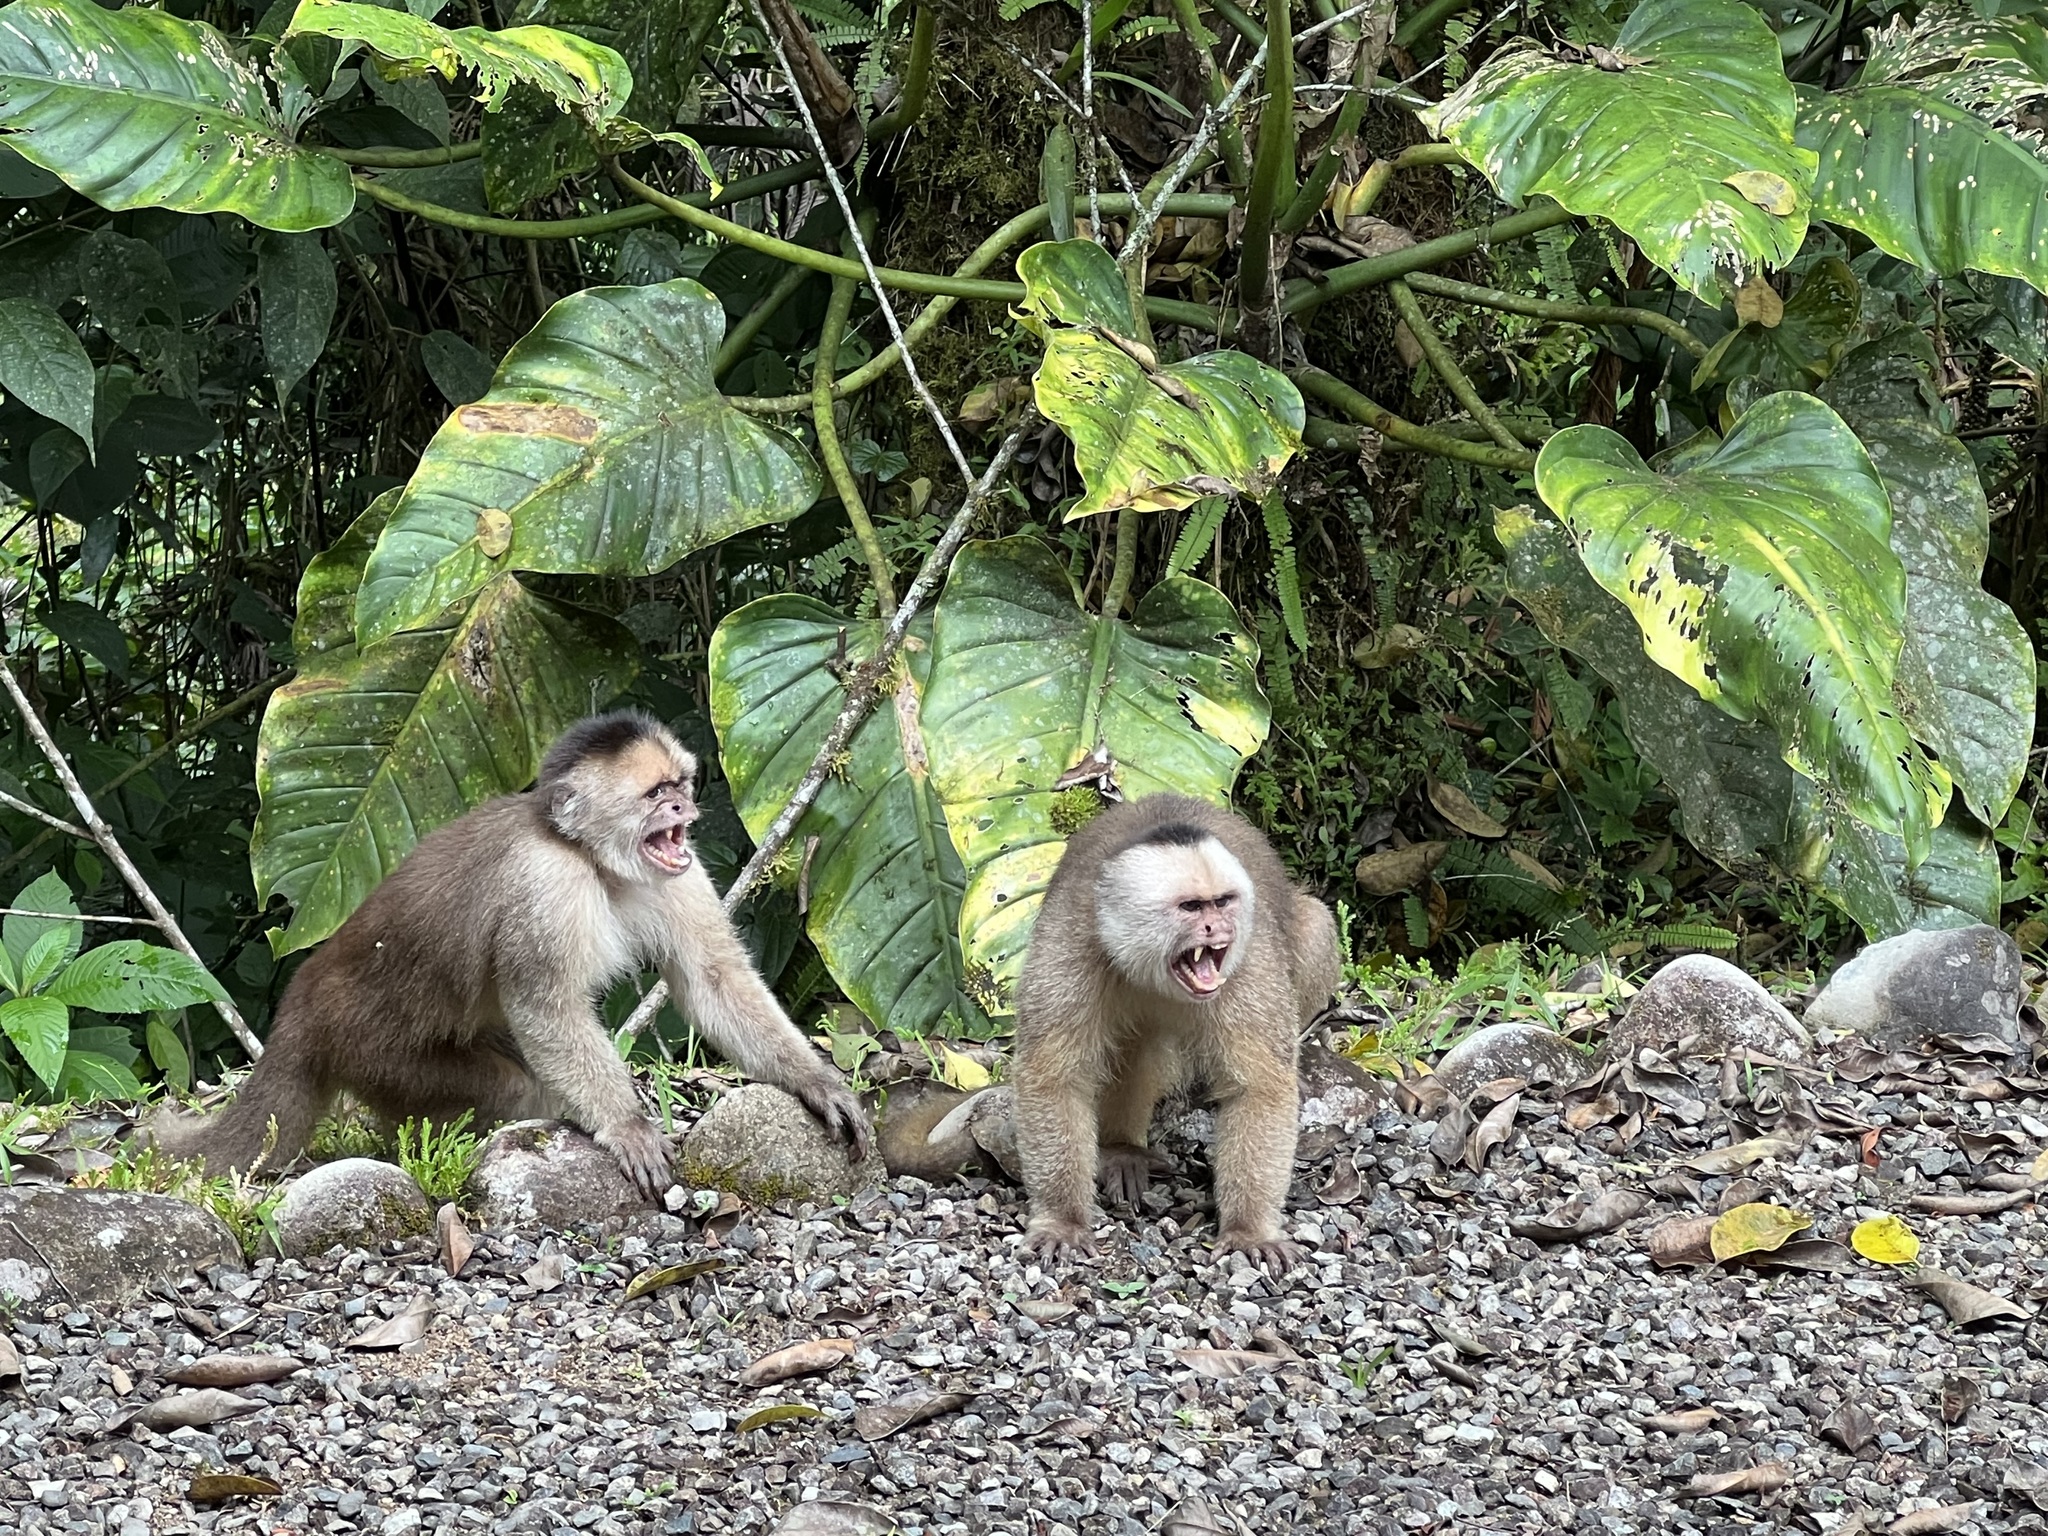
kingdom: Animalia
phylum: Chordata
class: Mammalia
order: Primates
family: Cebidae
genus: Cebus
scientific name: Cebus yuracus
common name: Peruvian white-fronted capuchin
